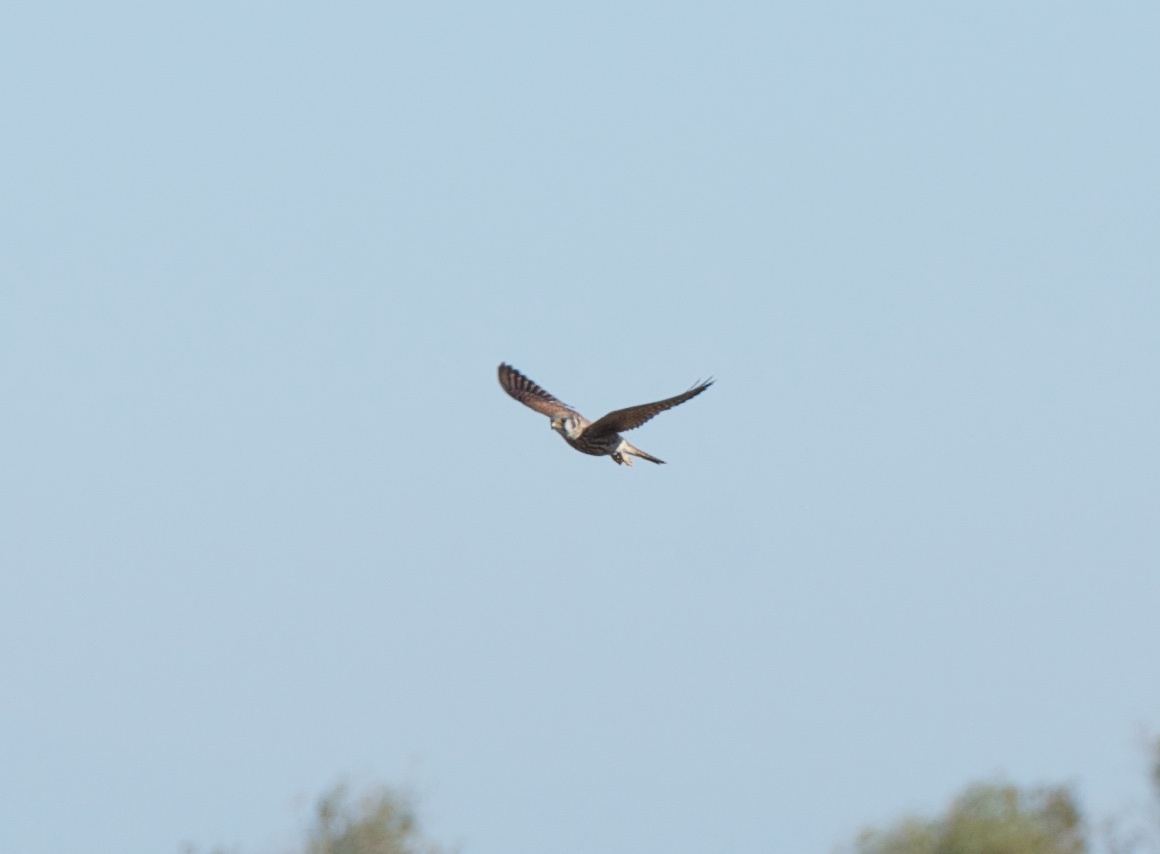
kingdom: Animalia
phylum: Chordata
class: Aves
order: Falconiformes
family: Falconidae
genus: Falco
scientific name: Falco sparverius
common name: American kestrel
